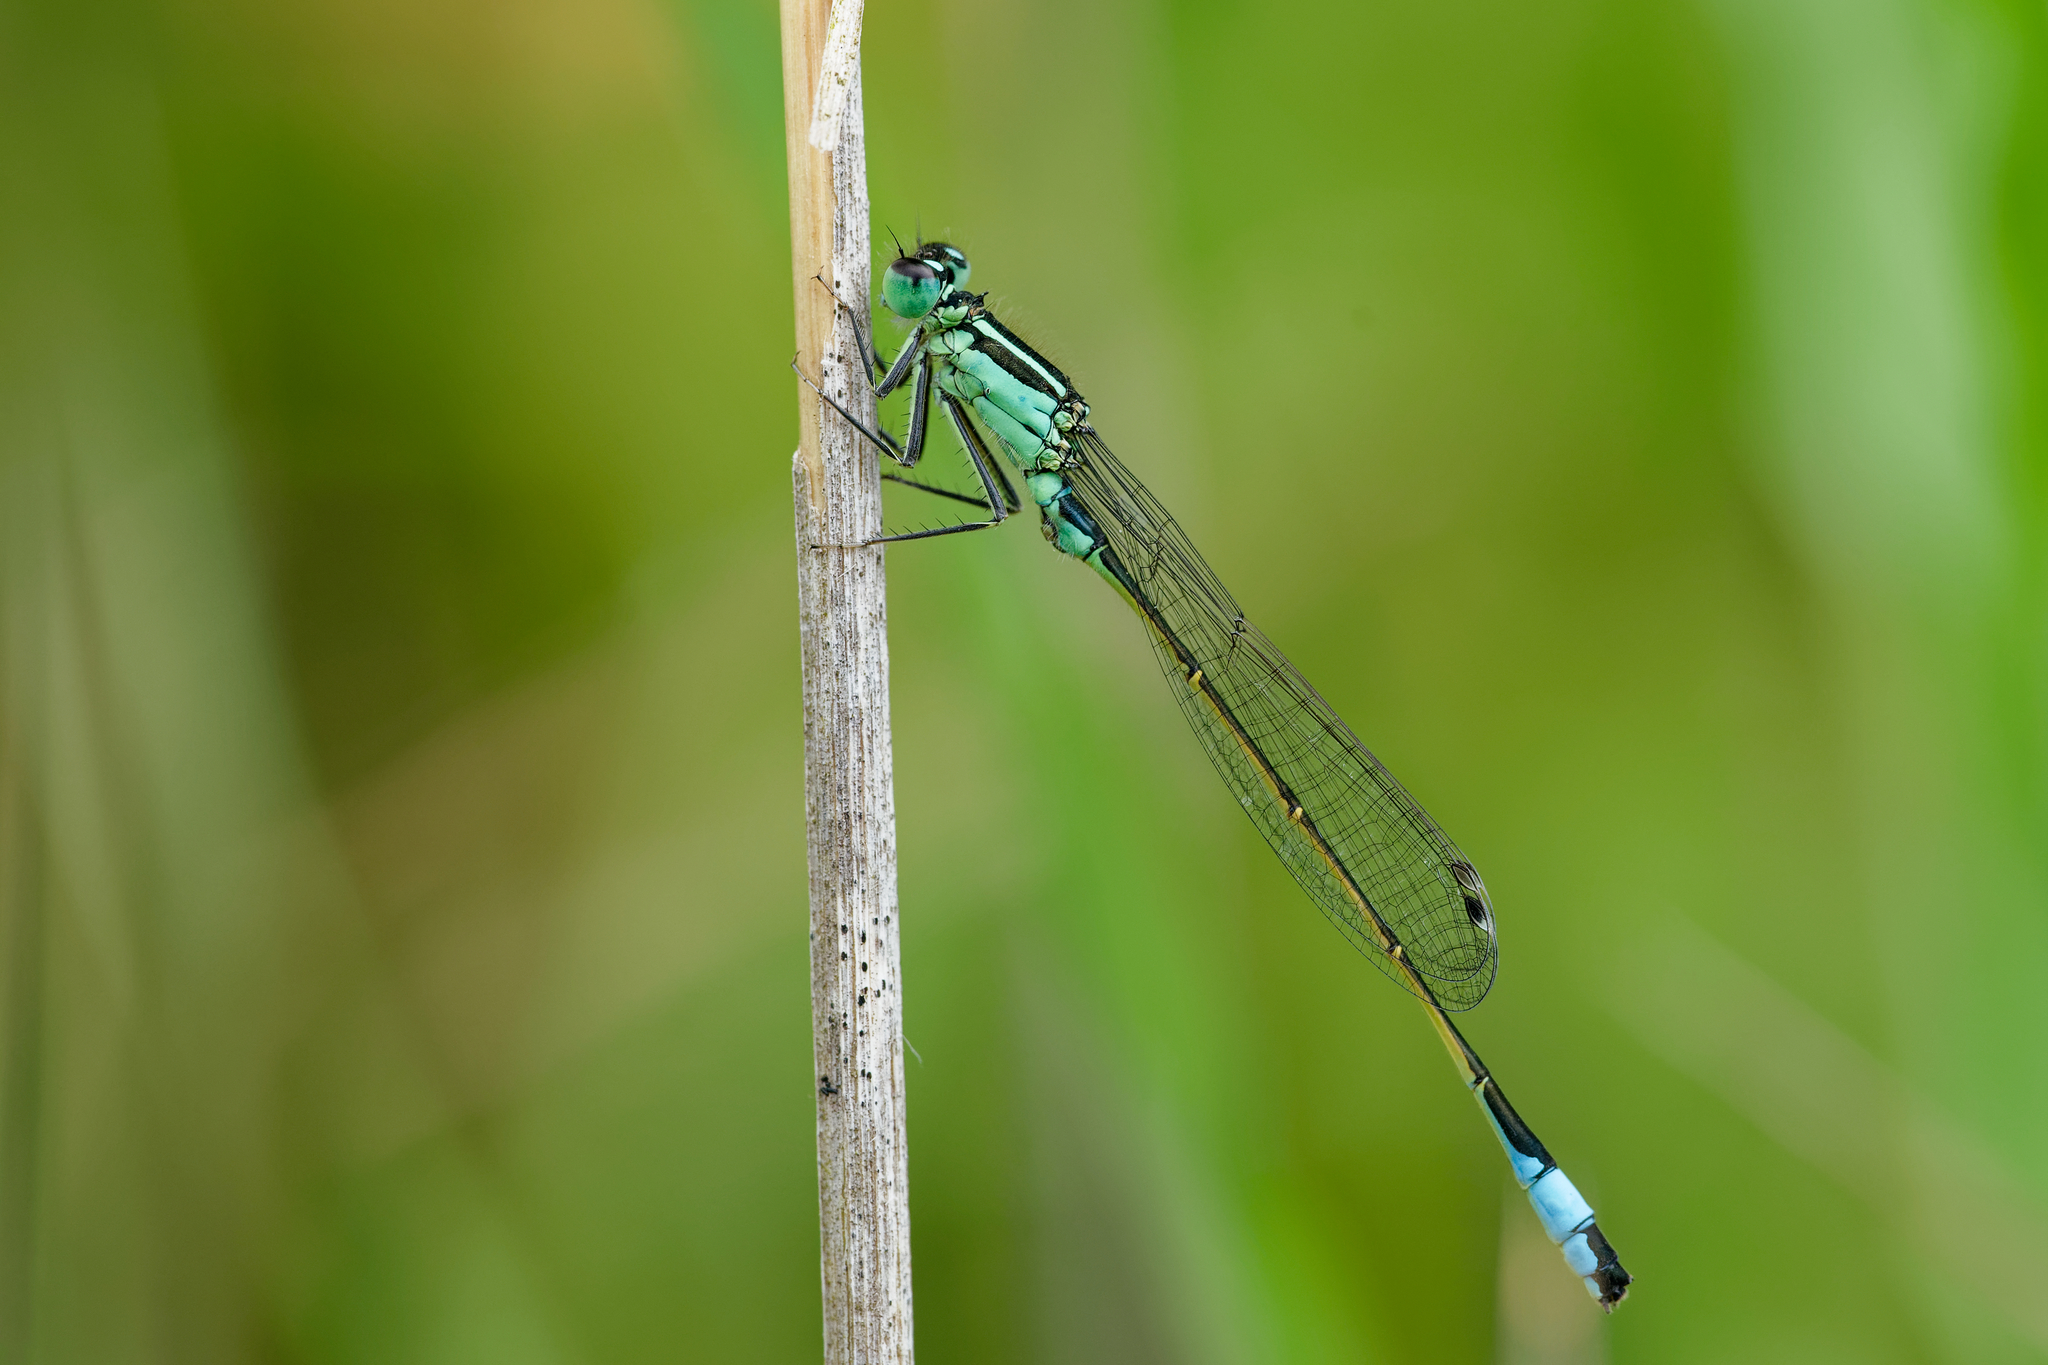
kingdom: Animalia
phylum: Arthropoda
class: Insecta
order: Odonata
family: Coenagrionidae
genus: Ischnura
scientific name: Ischnura elegans
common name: Blue-tailed damselfly
